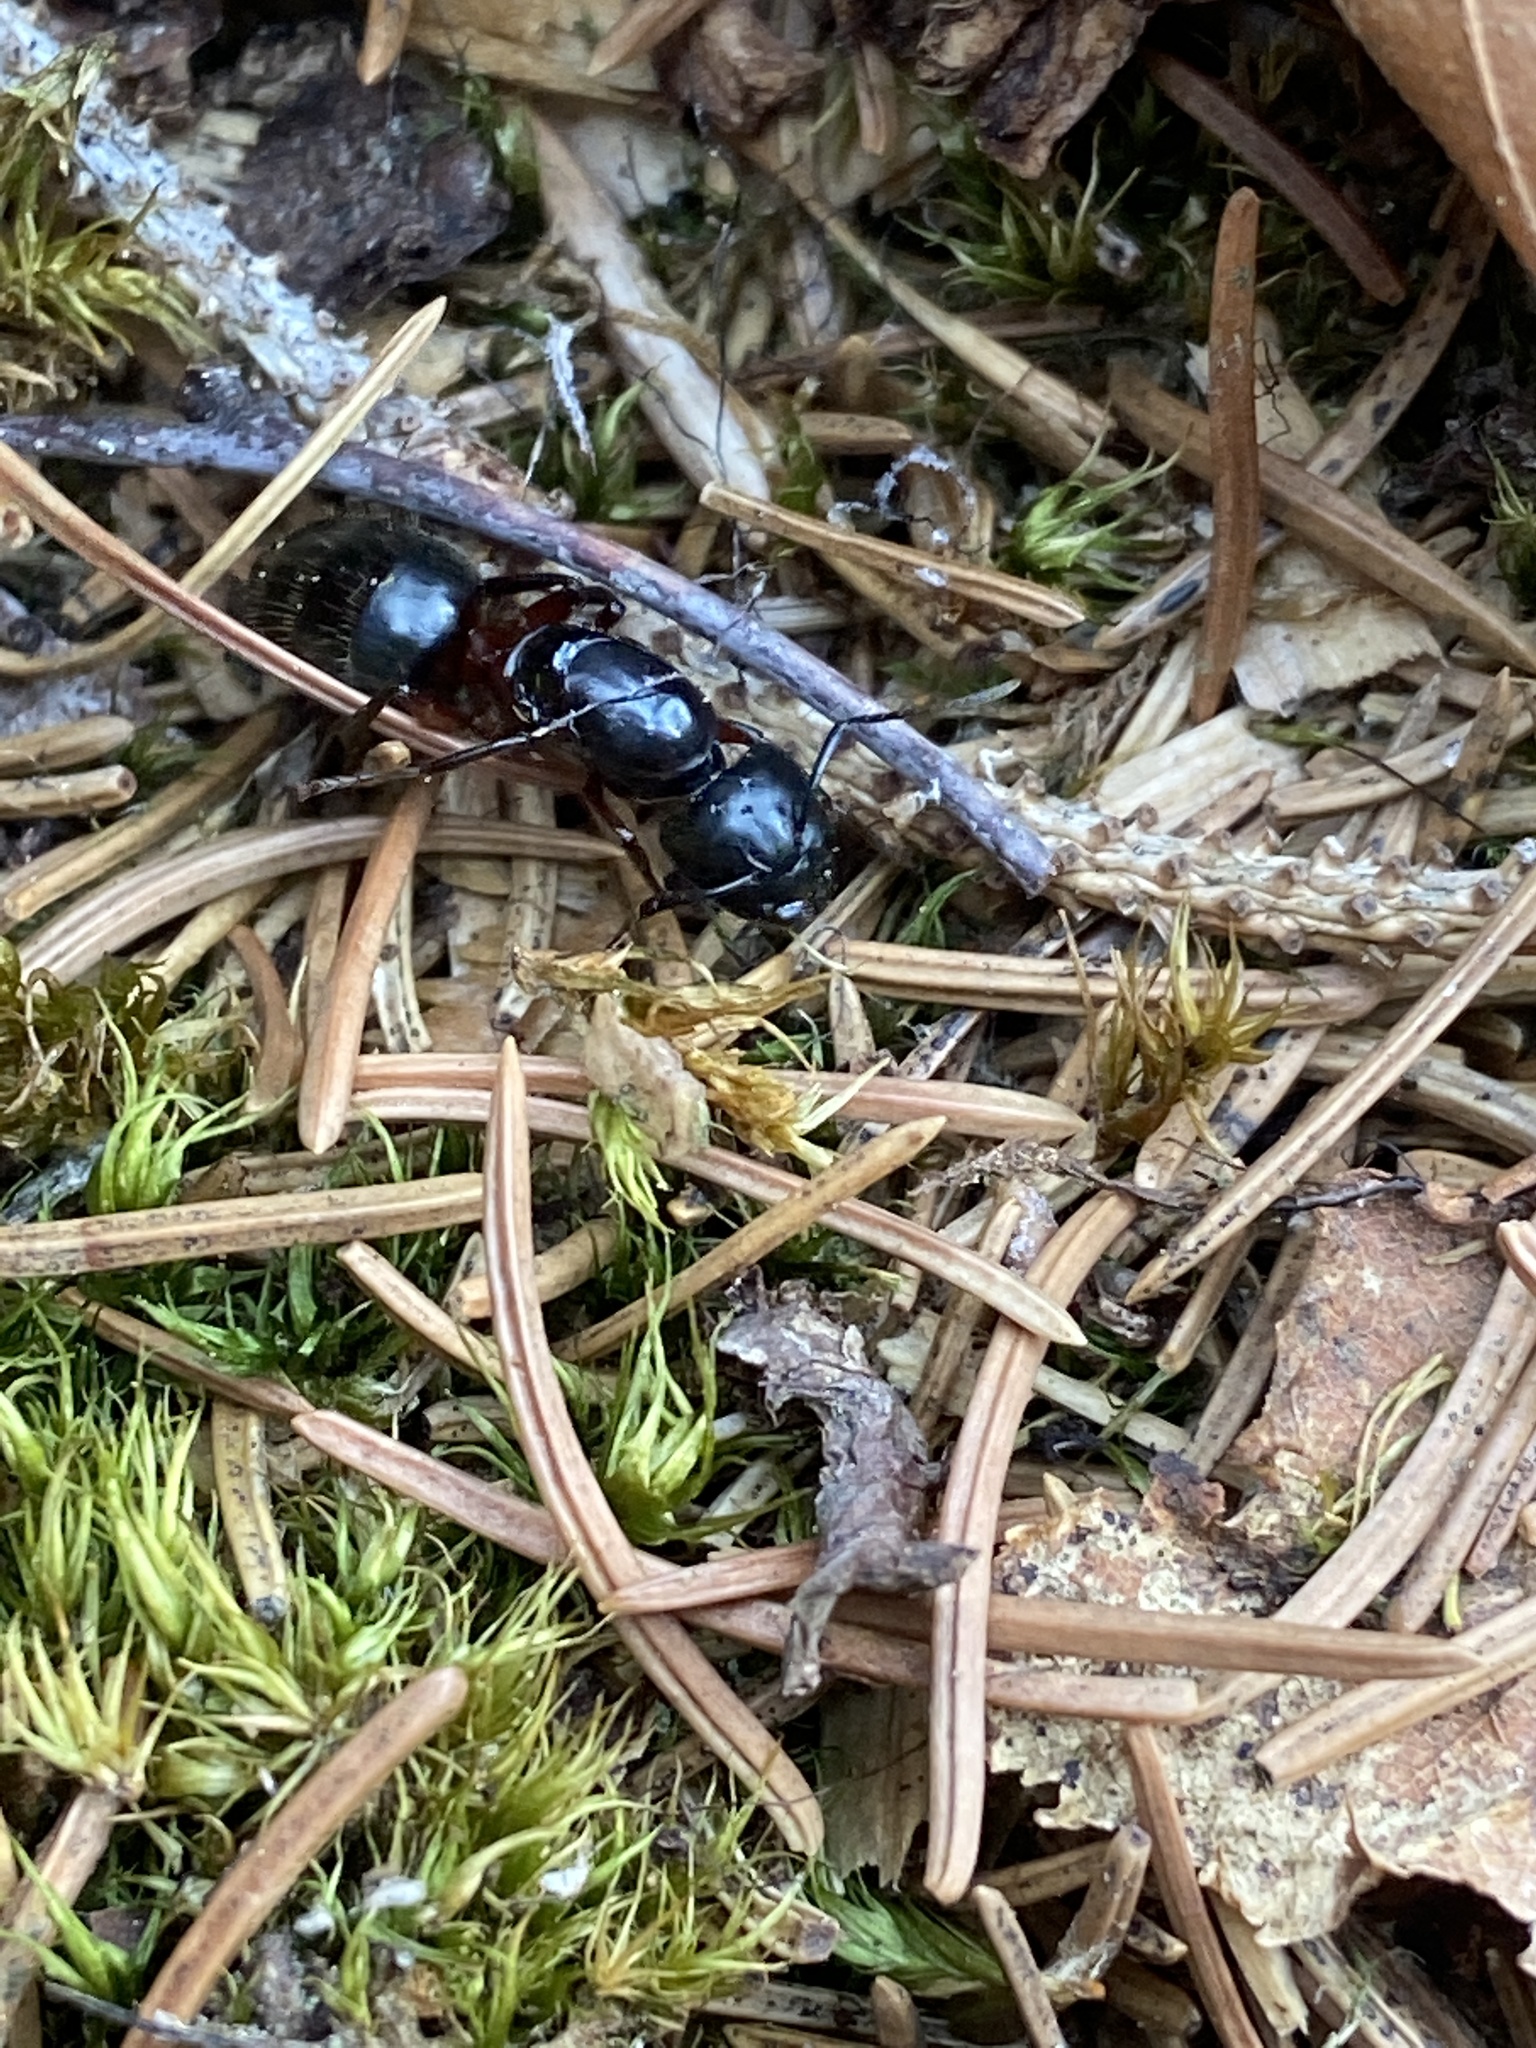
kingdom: Animalia
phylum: Arthropoda
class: Insecta
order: Hymenoptera
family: Formicidae
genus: Camponotus
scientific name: Camponotus herculeanus
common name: Hercules ant
